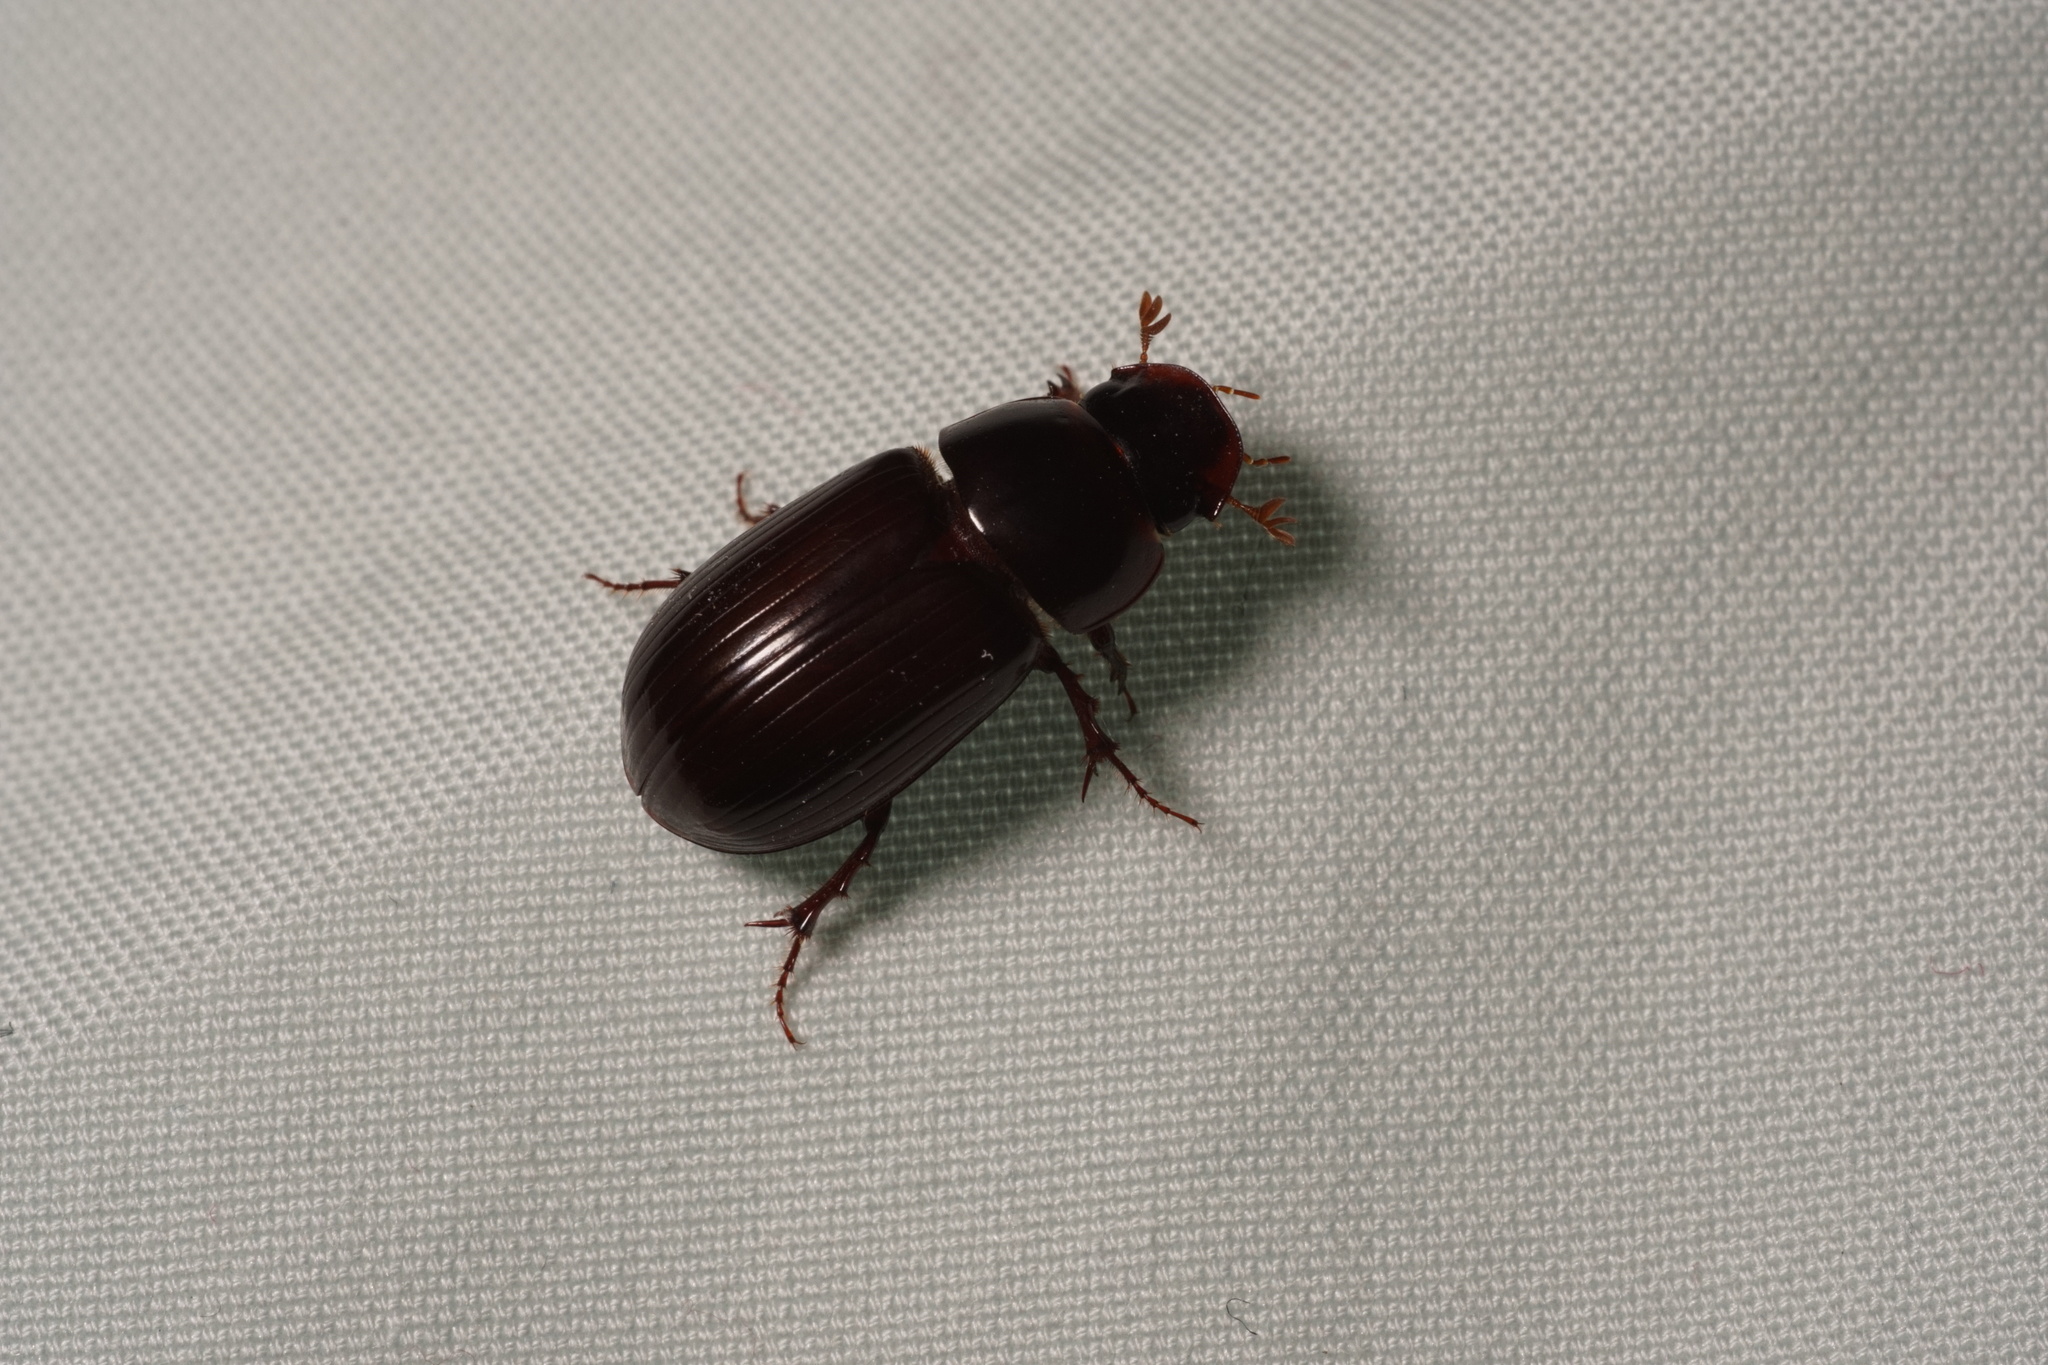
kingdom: Animalia
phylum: Arthropoda
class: Insecta
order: Coleoptera
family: Scarabaeidae
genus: Acrossus
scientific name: Acrossus rufipes
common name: Night-flying dung beetle
